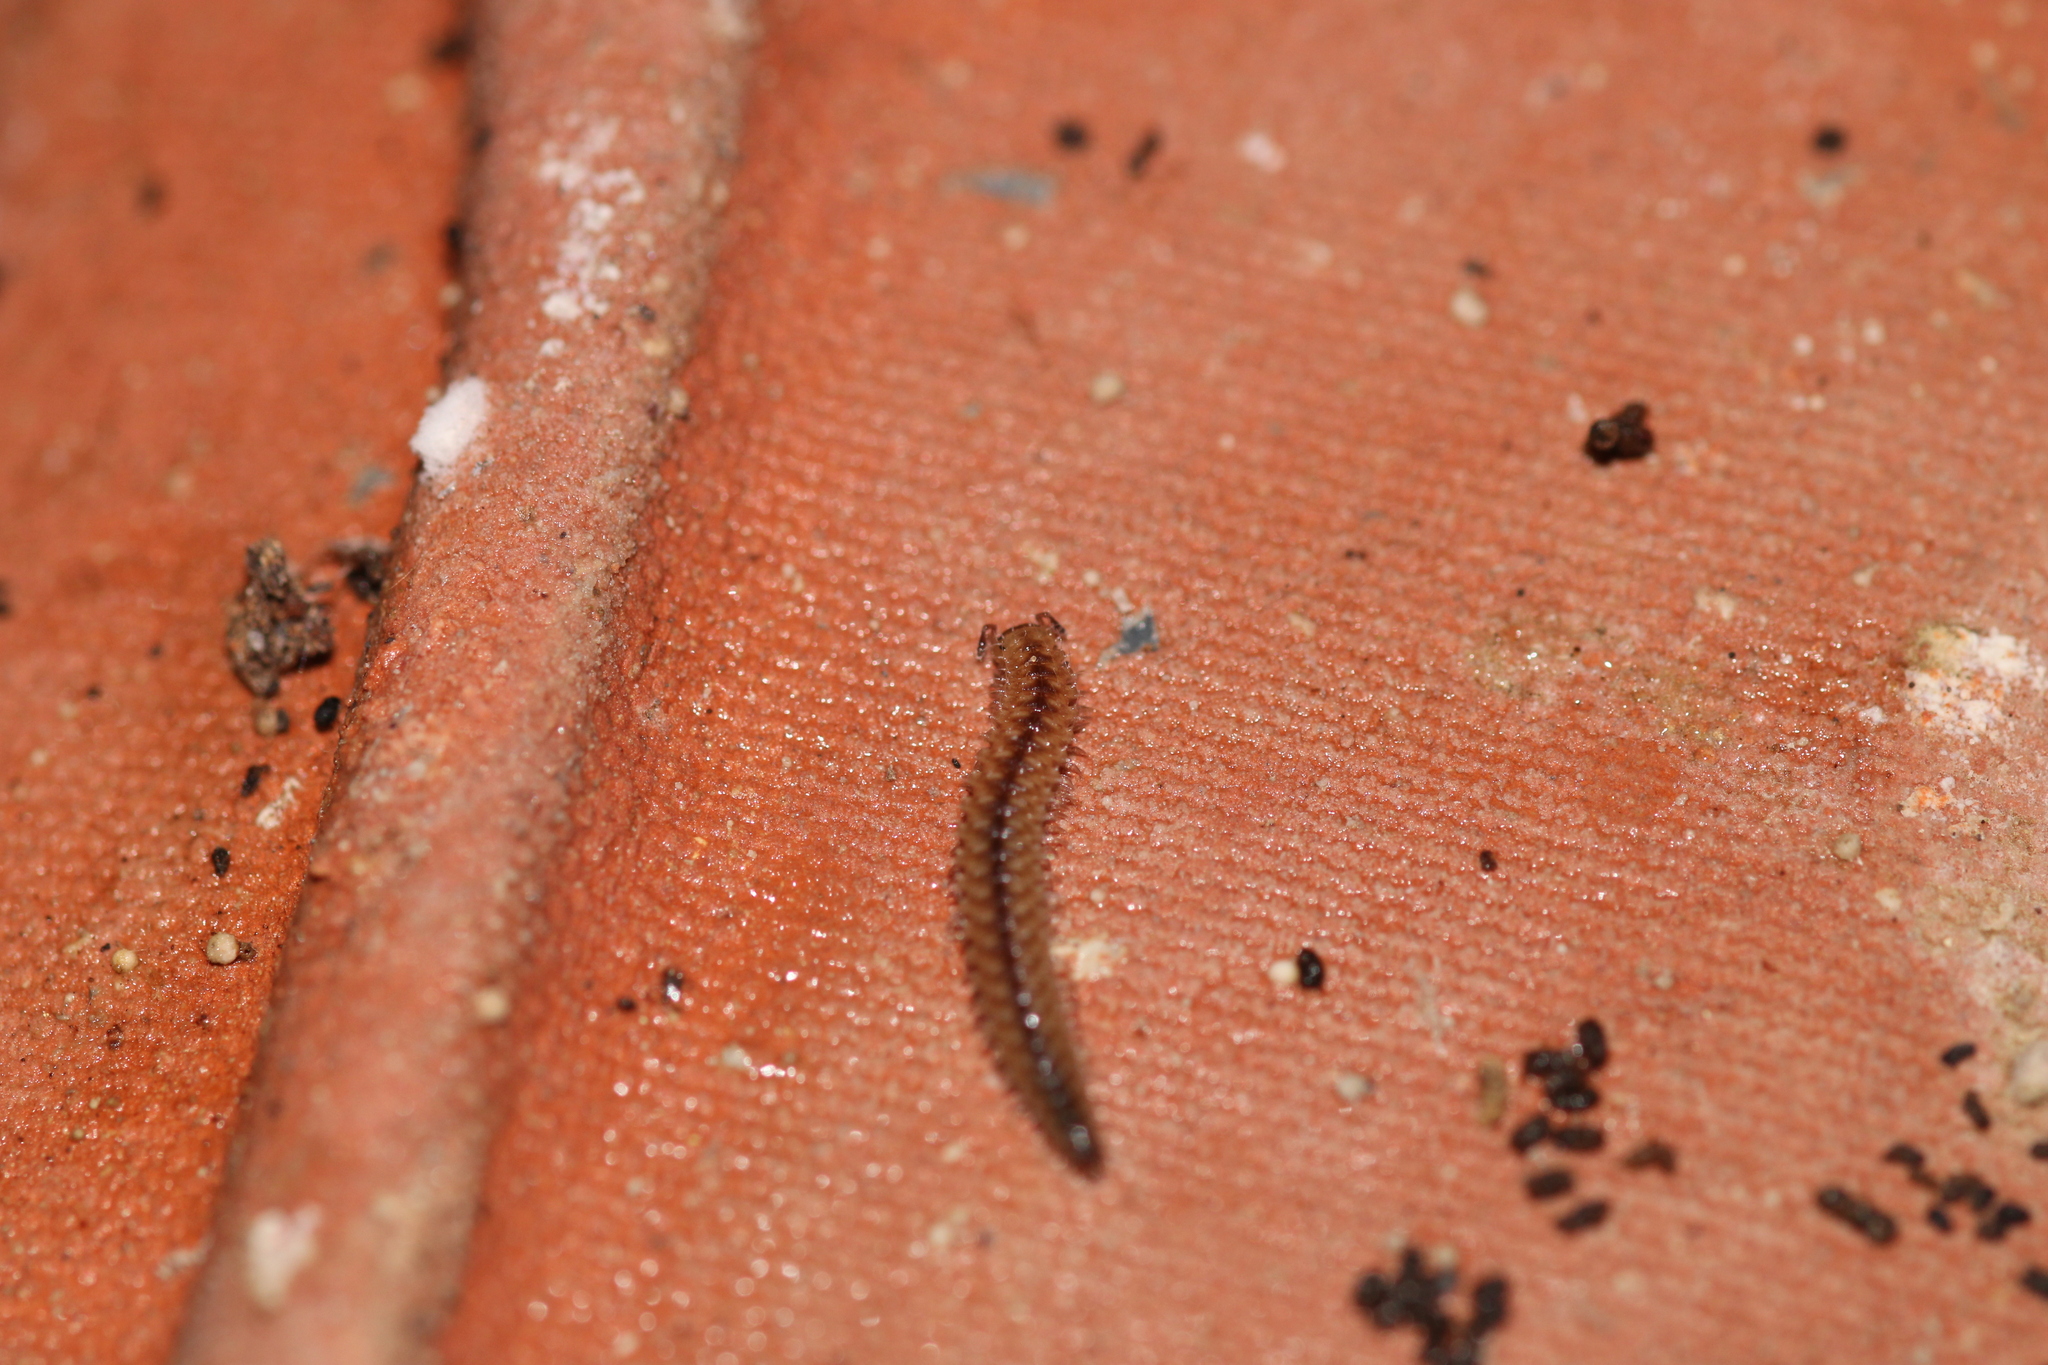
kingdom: Animalia
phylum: Arthropoda
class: Diplopoda
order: Chordeumatida
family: Craspedosomatidae
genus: Nanogona
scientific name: Nanogona polydesmoides
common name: Eyed flat-backed millipede
